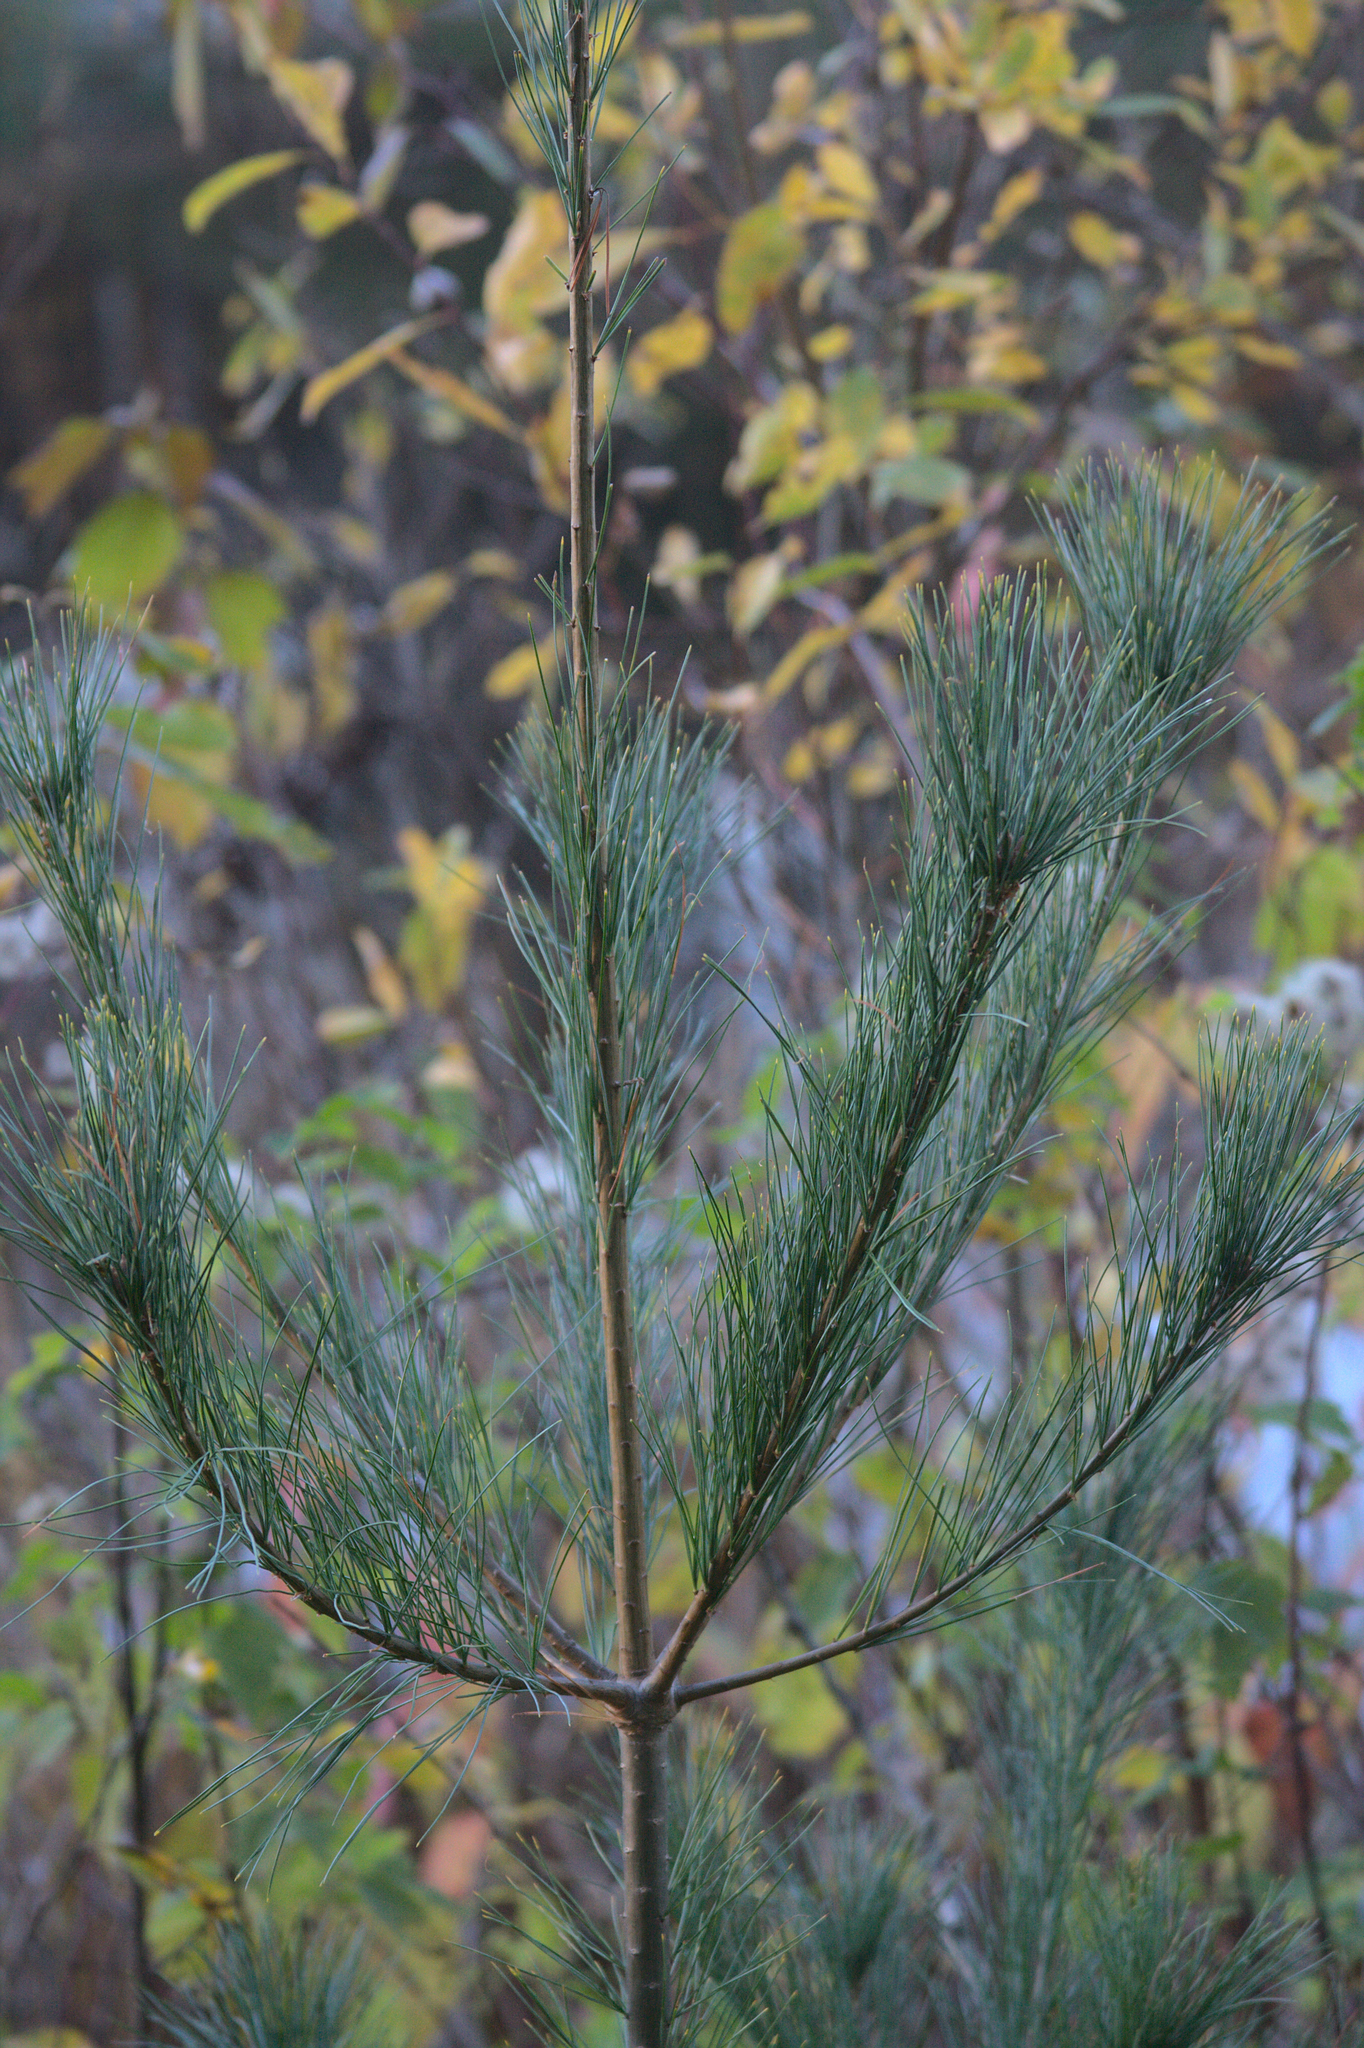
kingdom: Plantae
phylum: Tracheophyta
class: Pinopsida
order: Pinales
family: Pinaceae
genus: Pinus
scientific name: Pinus strobus
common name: Weymouth pine
